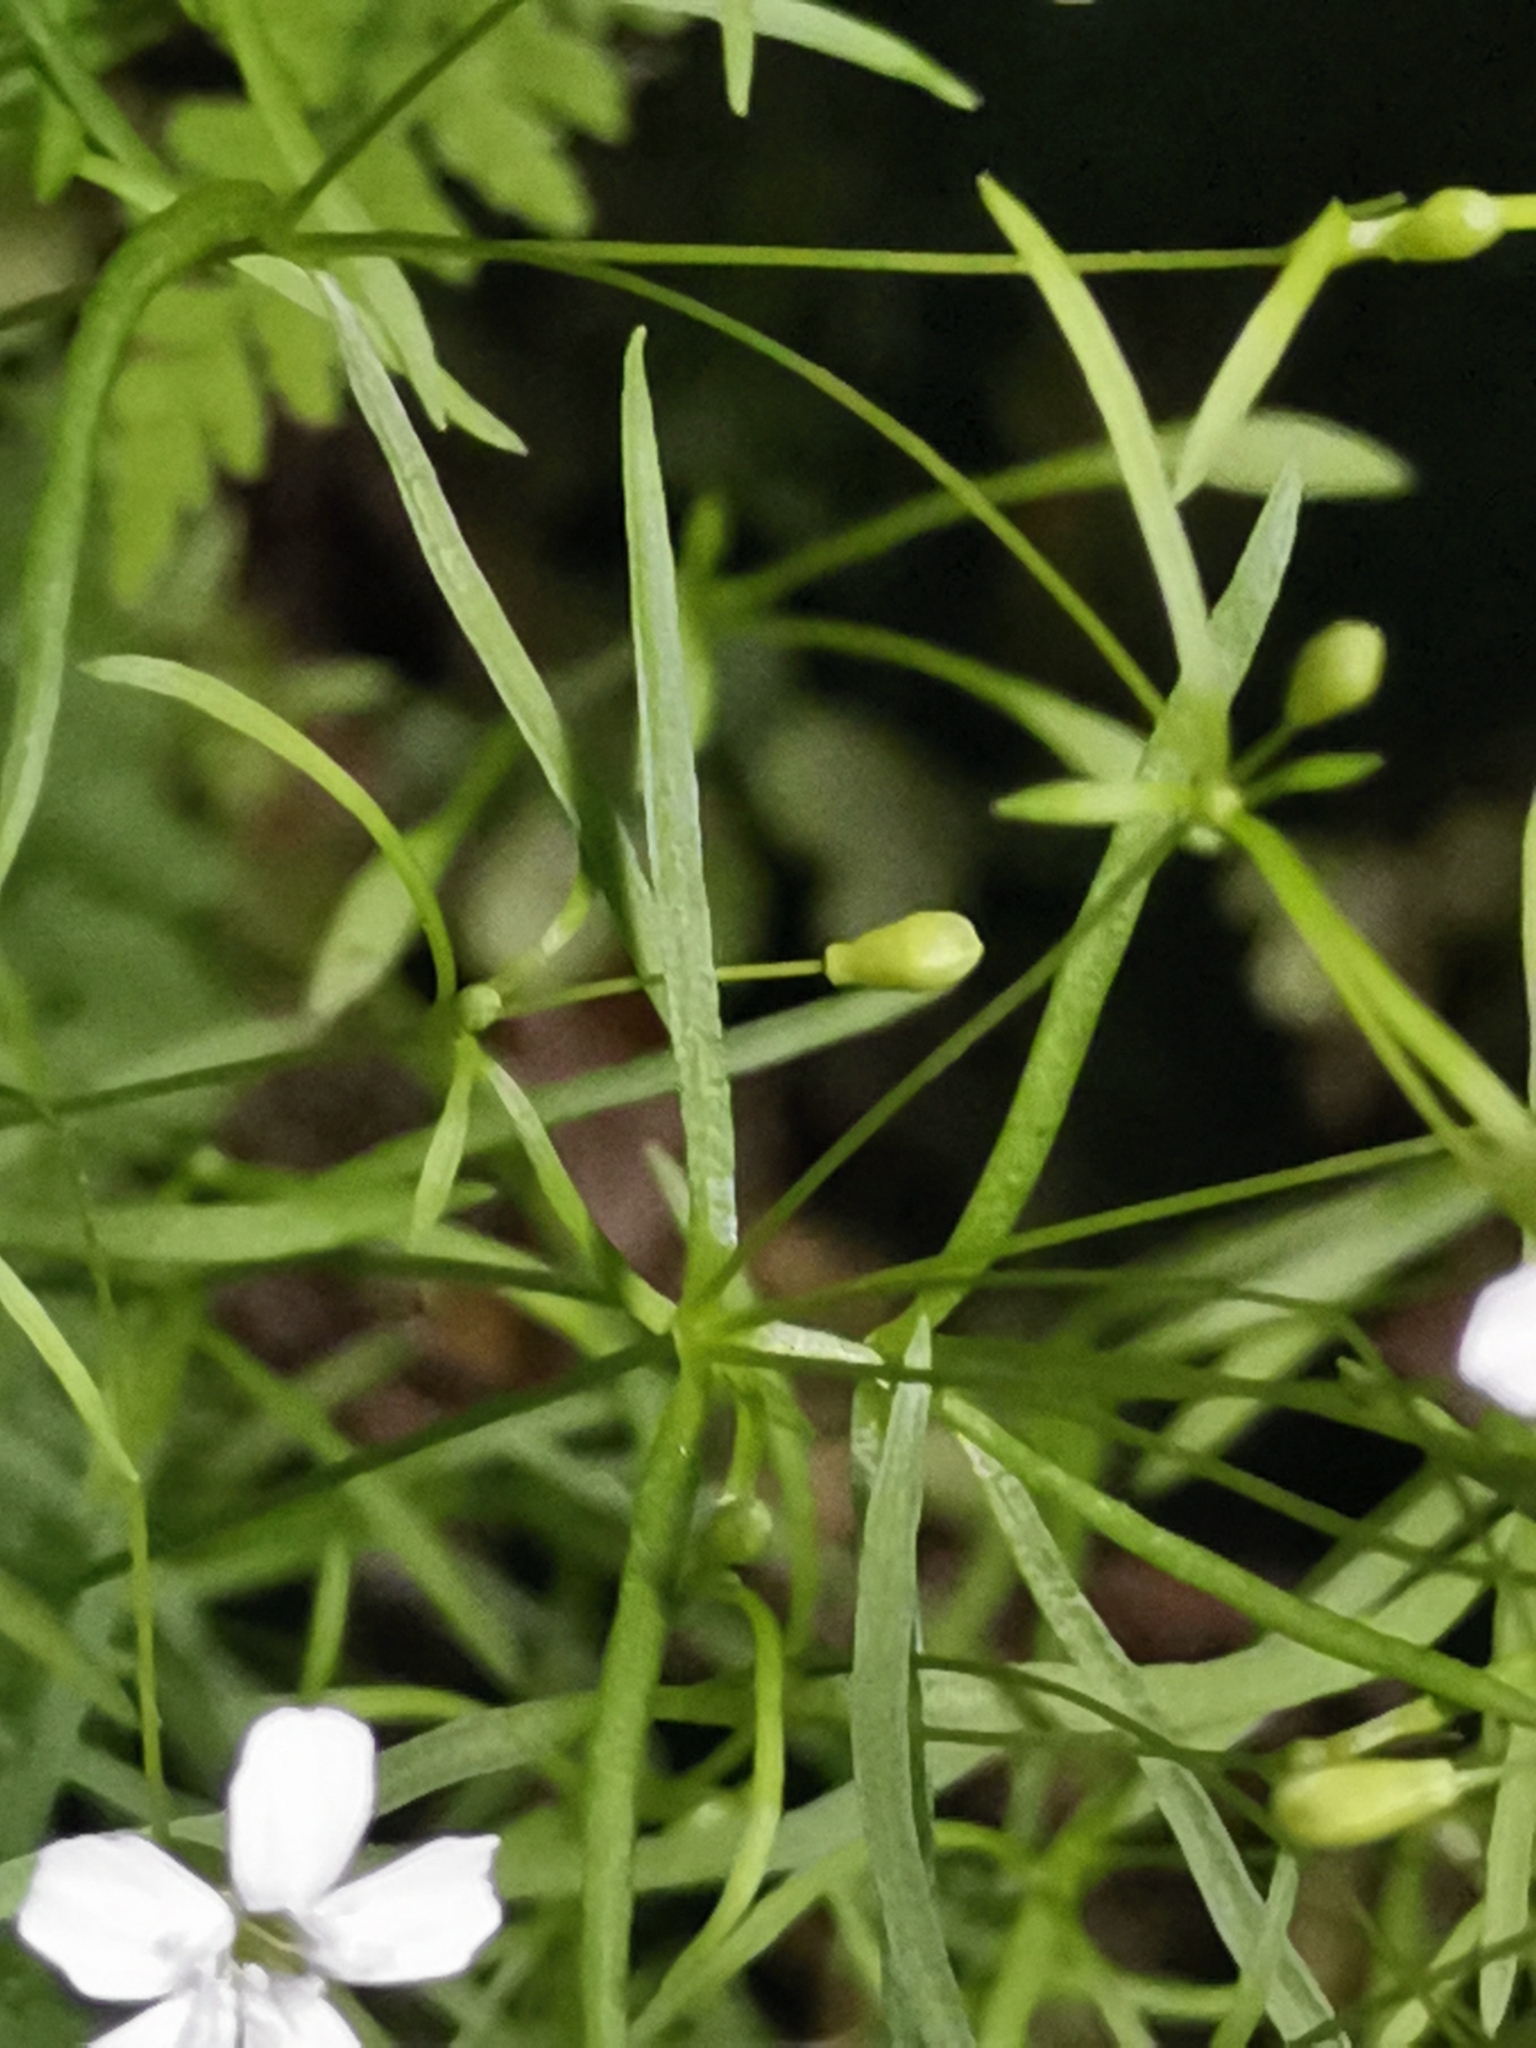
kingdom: Plantae
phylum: Tracheophyta
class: Magnoliopsida
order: Caryophyllales
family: Caryophyllaceae
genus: Heliosperma
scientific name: Heliosperma veselskyi
